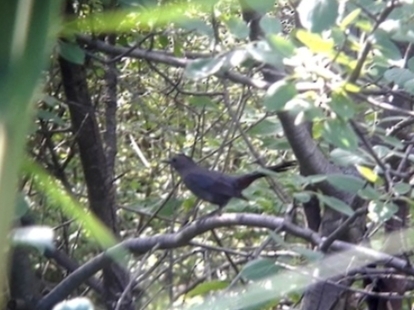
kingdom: Animalia
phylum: Chordata
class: Aves
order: Passeriformes
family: Mimidae
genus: Dumetella
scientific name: Dumetella carolinensis
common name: Gray catbird
